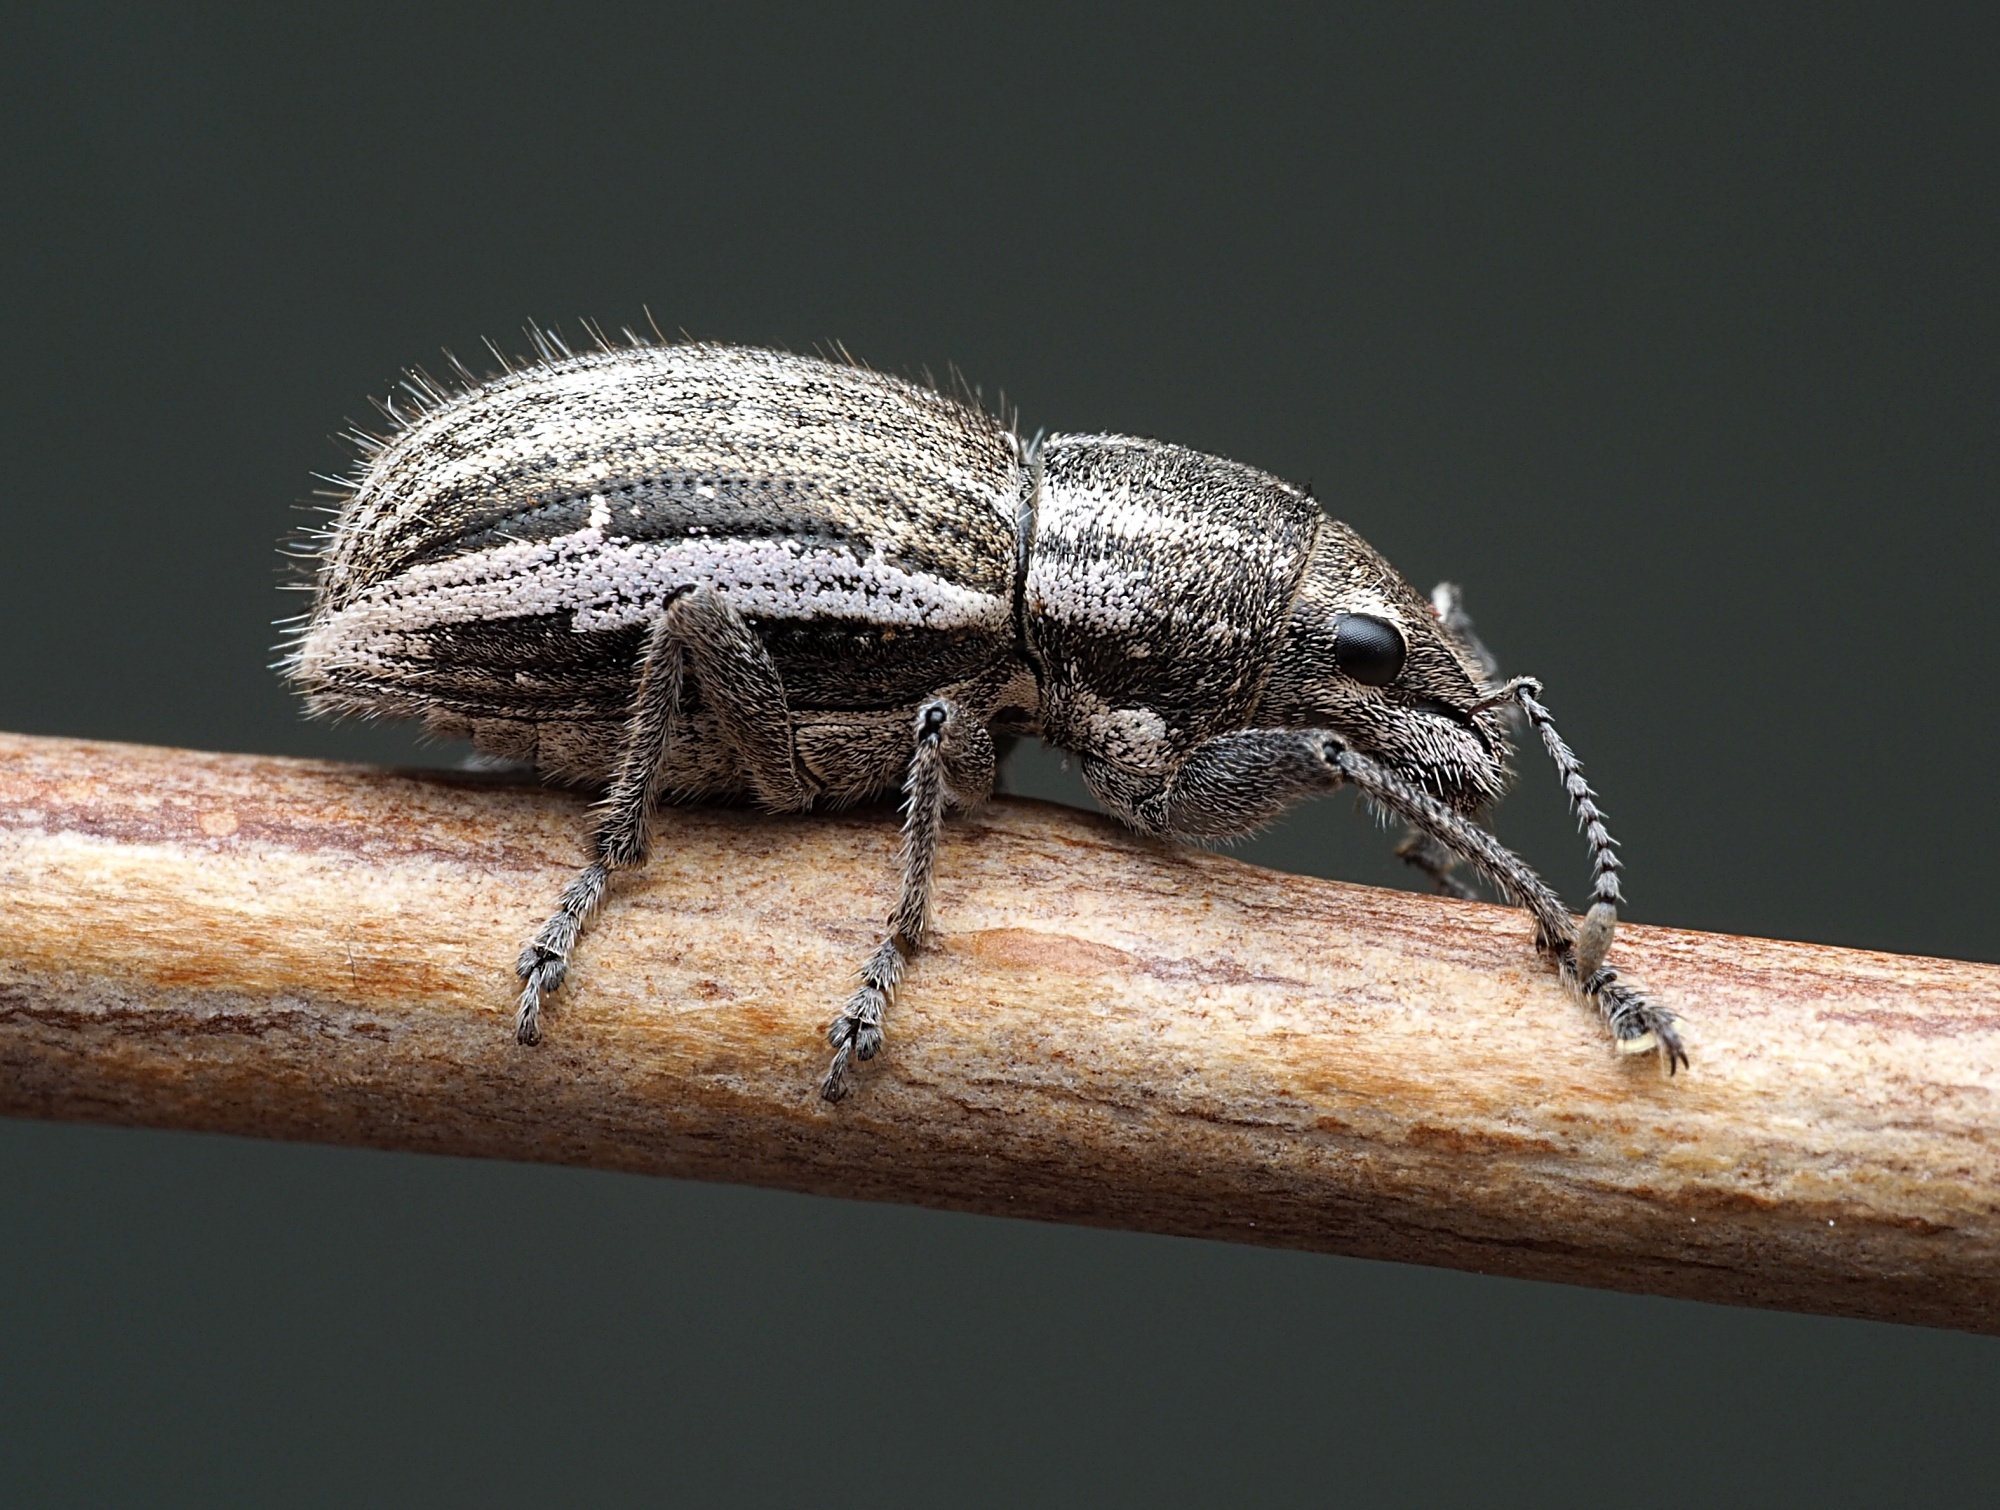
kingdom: Animalia
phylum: Arthropoda
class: Insecta
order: Coleoptera
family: Curculionidae
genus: Naupactus
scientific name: Naupactus leucoloma
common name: Whitefringed beetle
